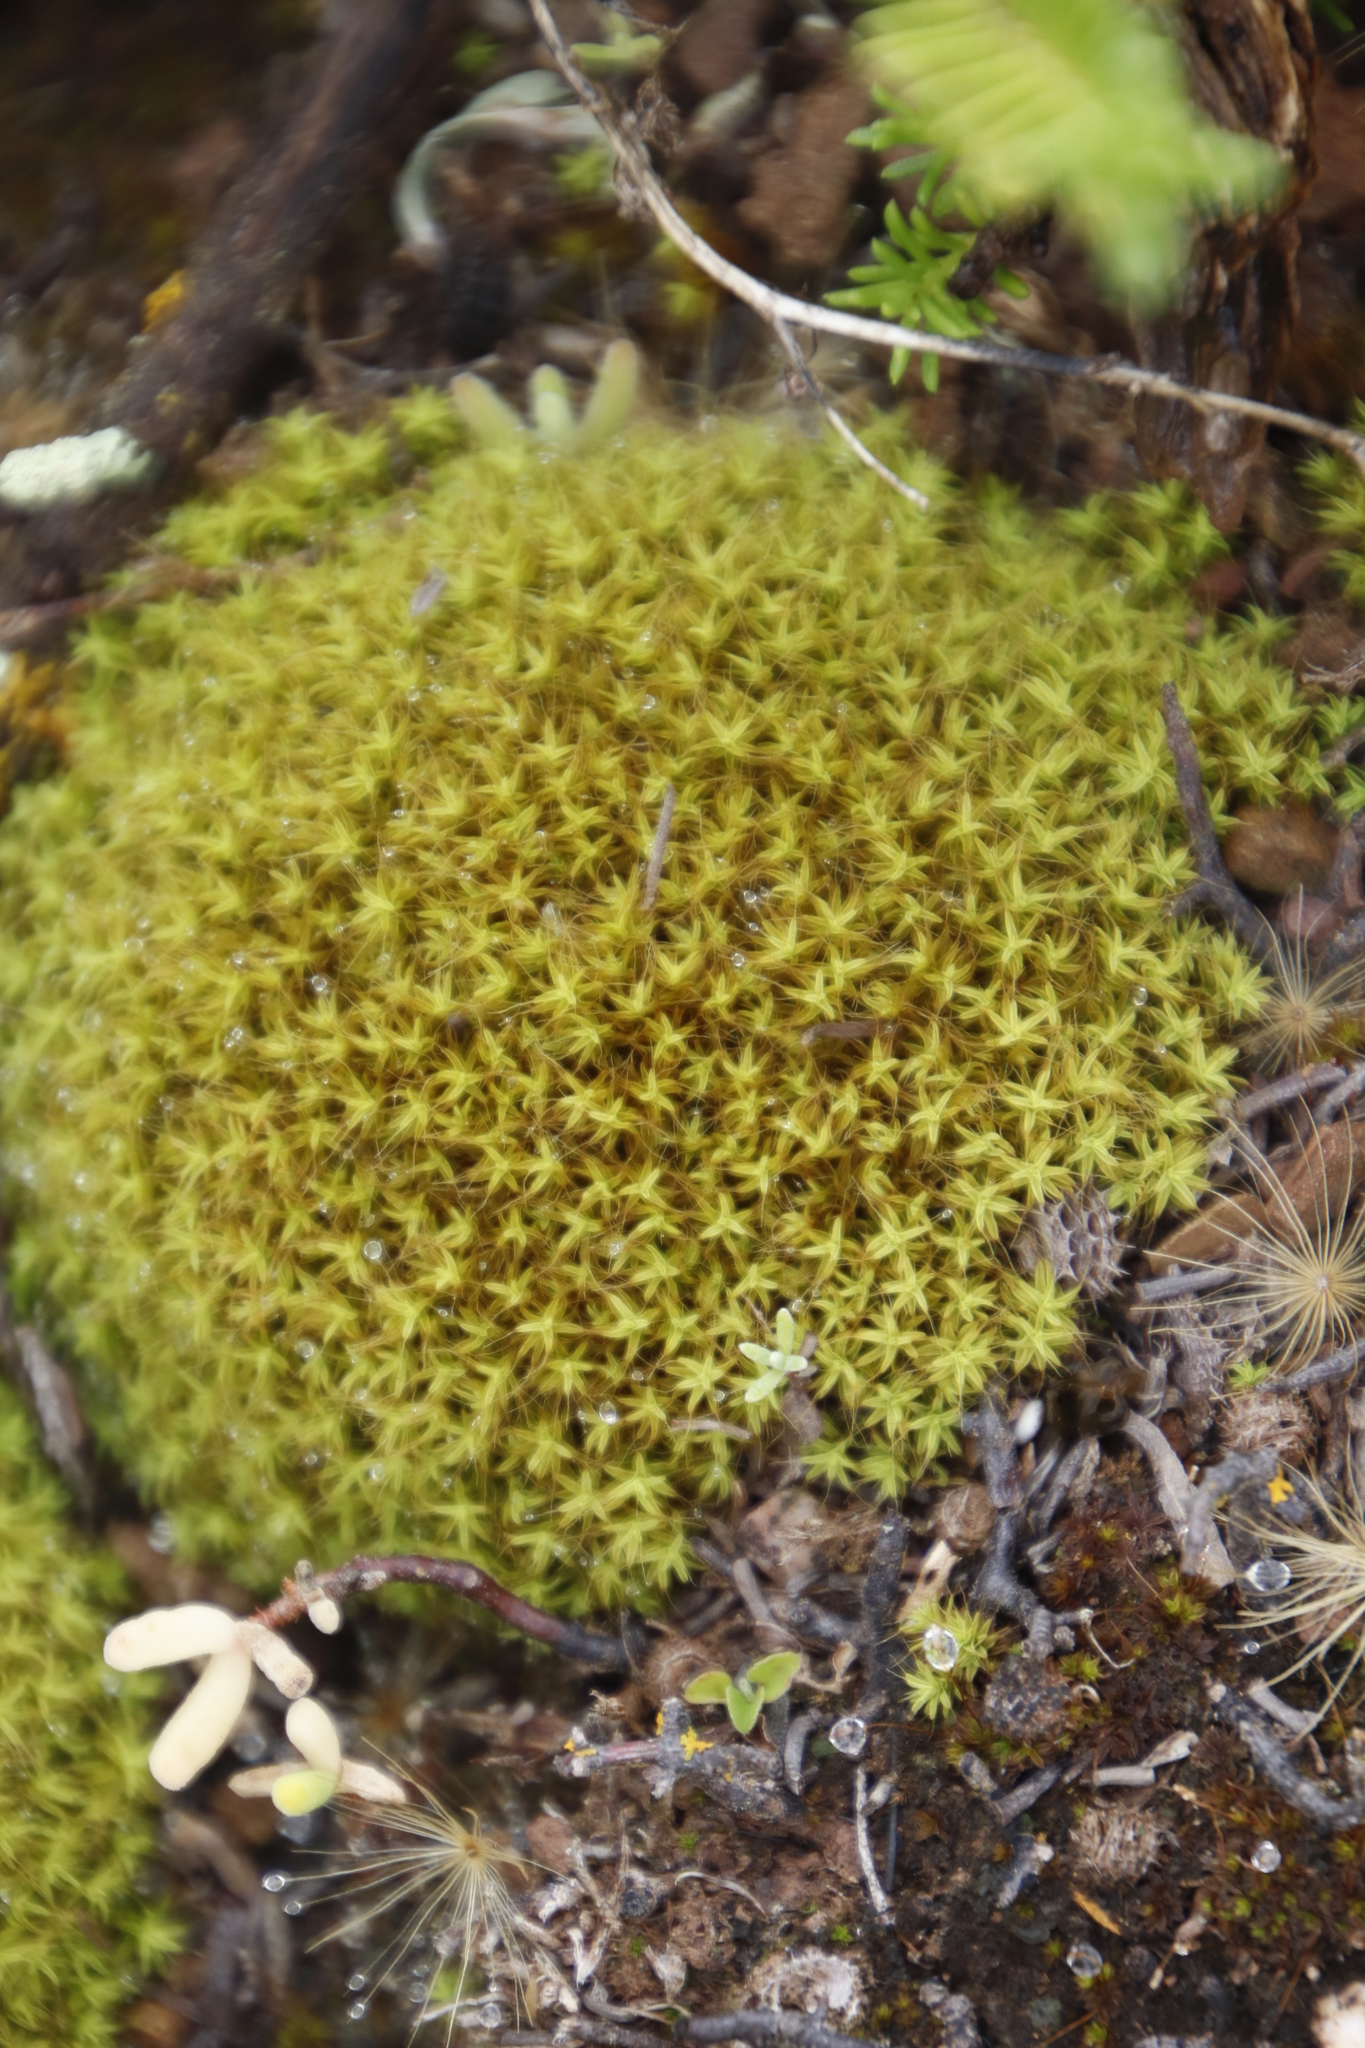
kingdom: Plantae
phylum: Bryophyta
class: Bryopsida
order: Pottiales
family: Pottiaceae
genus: Pseudocrossidium
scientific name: Pseudocrossidium crinitum
